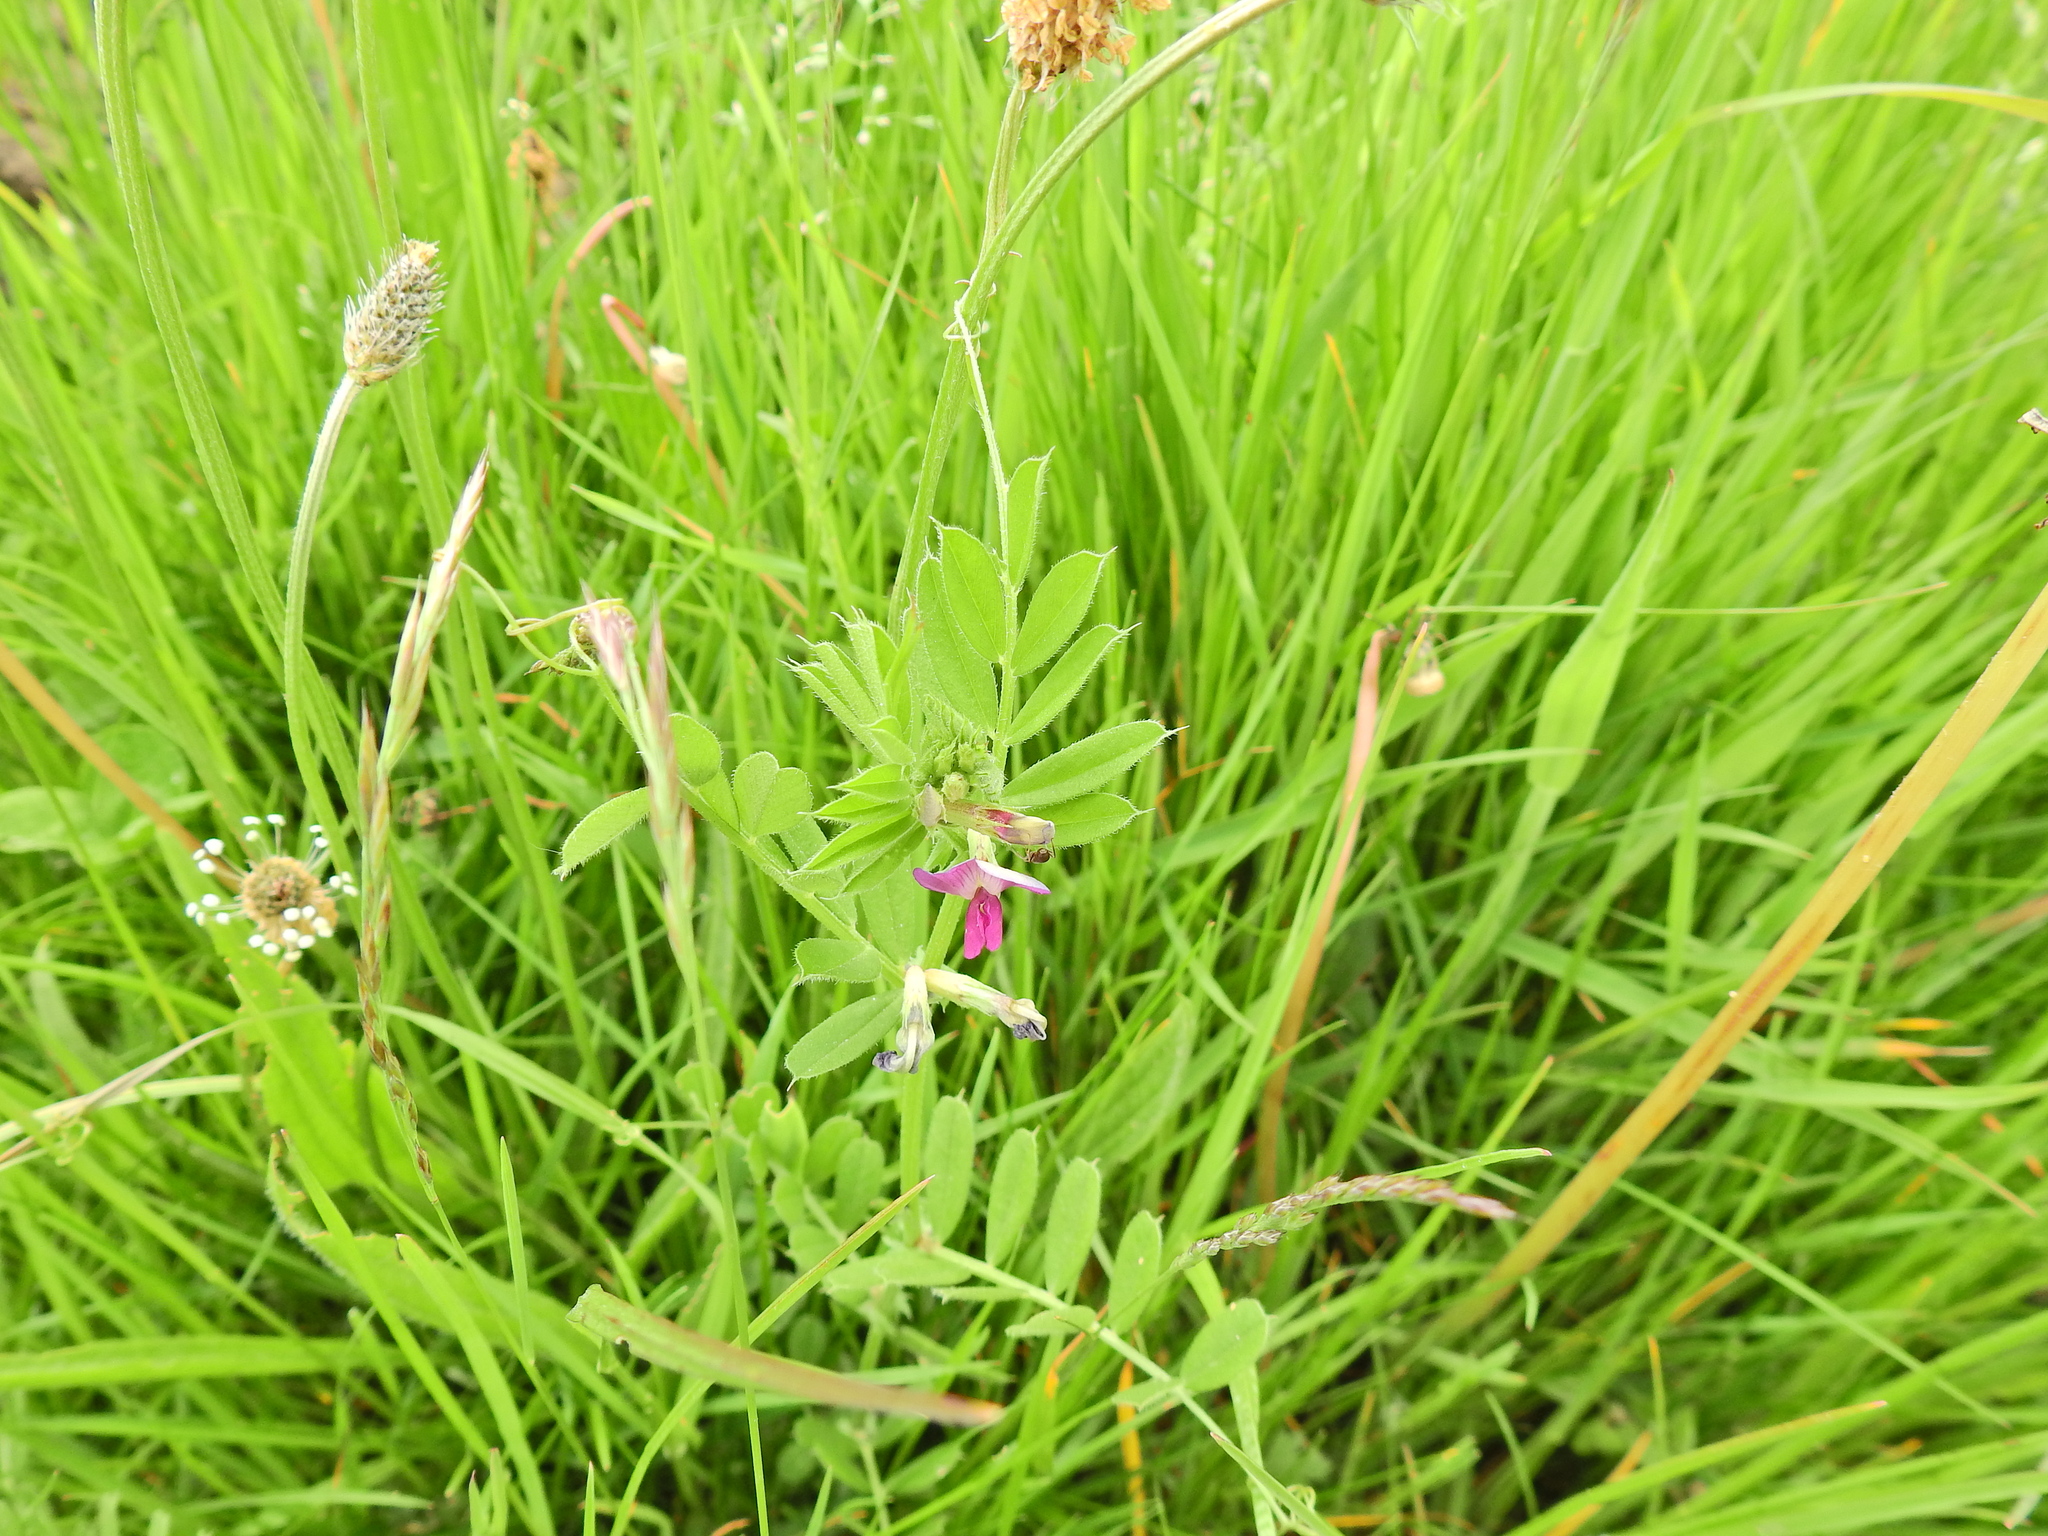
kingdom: Plantae
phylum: Tracheophyta
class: Magnoliopsida
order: Fabales
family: Fabaceae
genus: Vicia
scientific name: Vicia sativa
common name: Garden vetch
